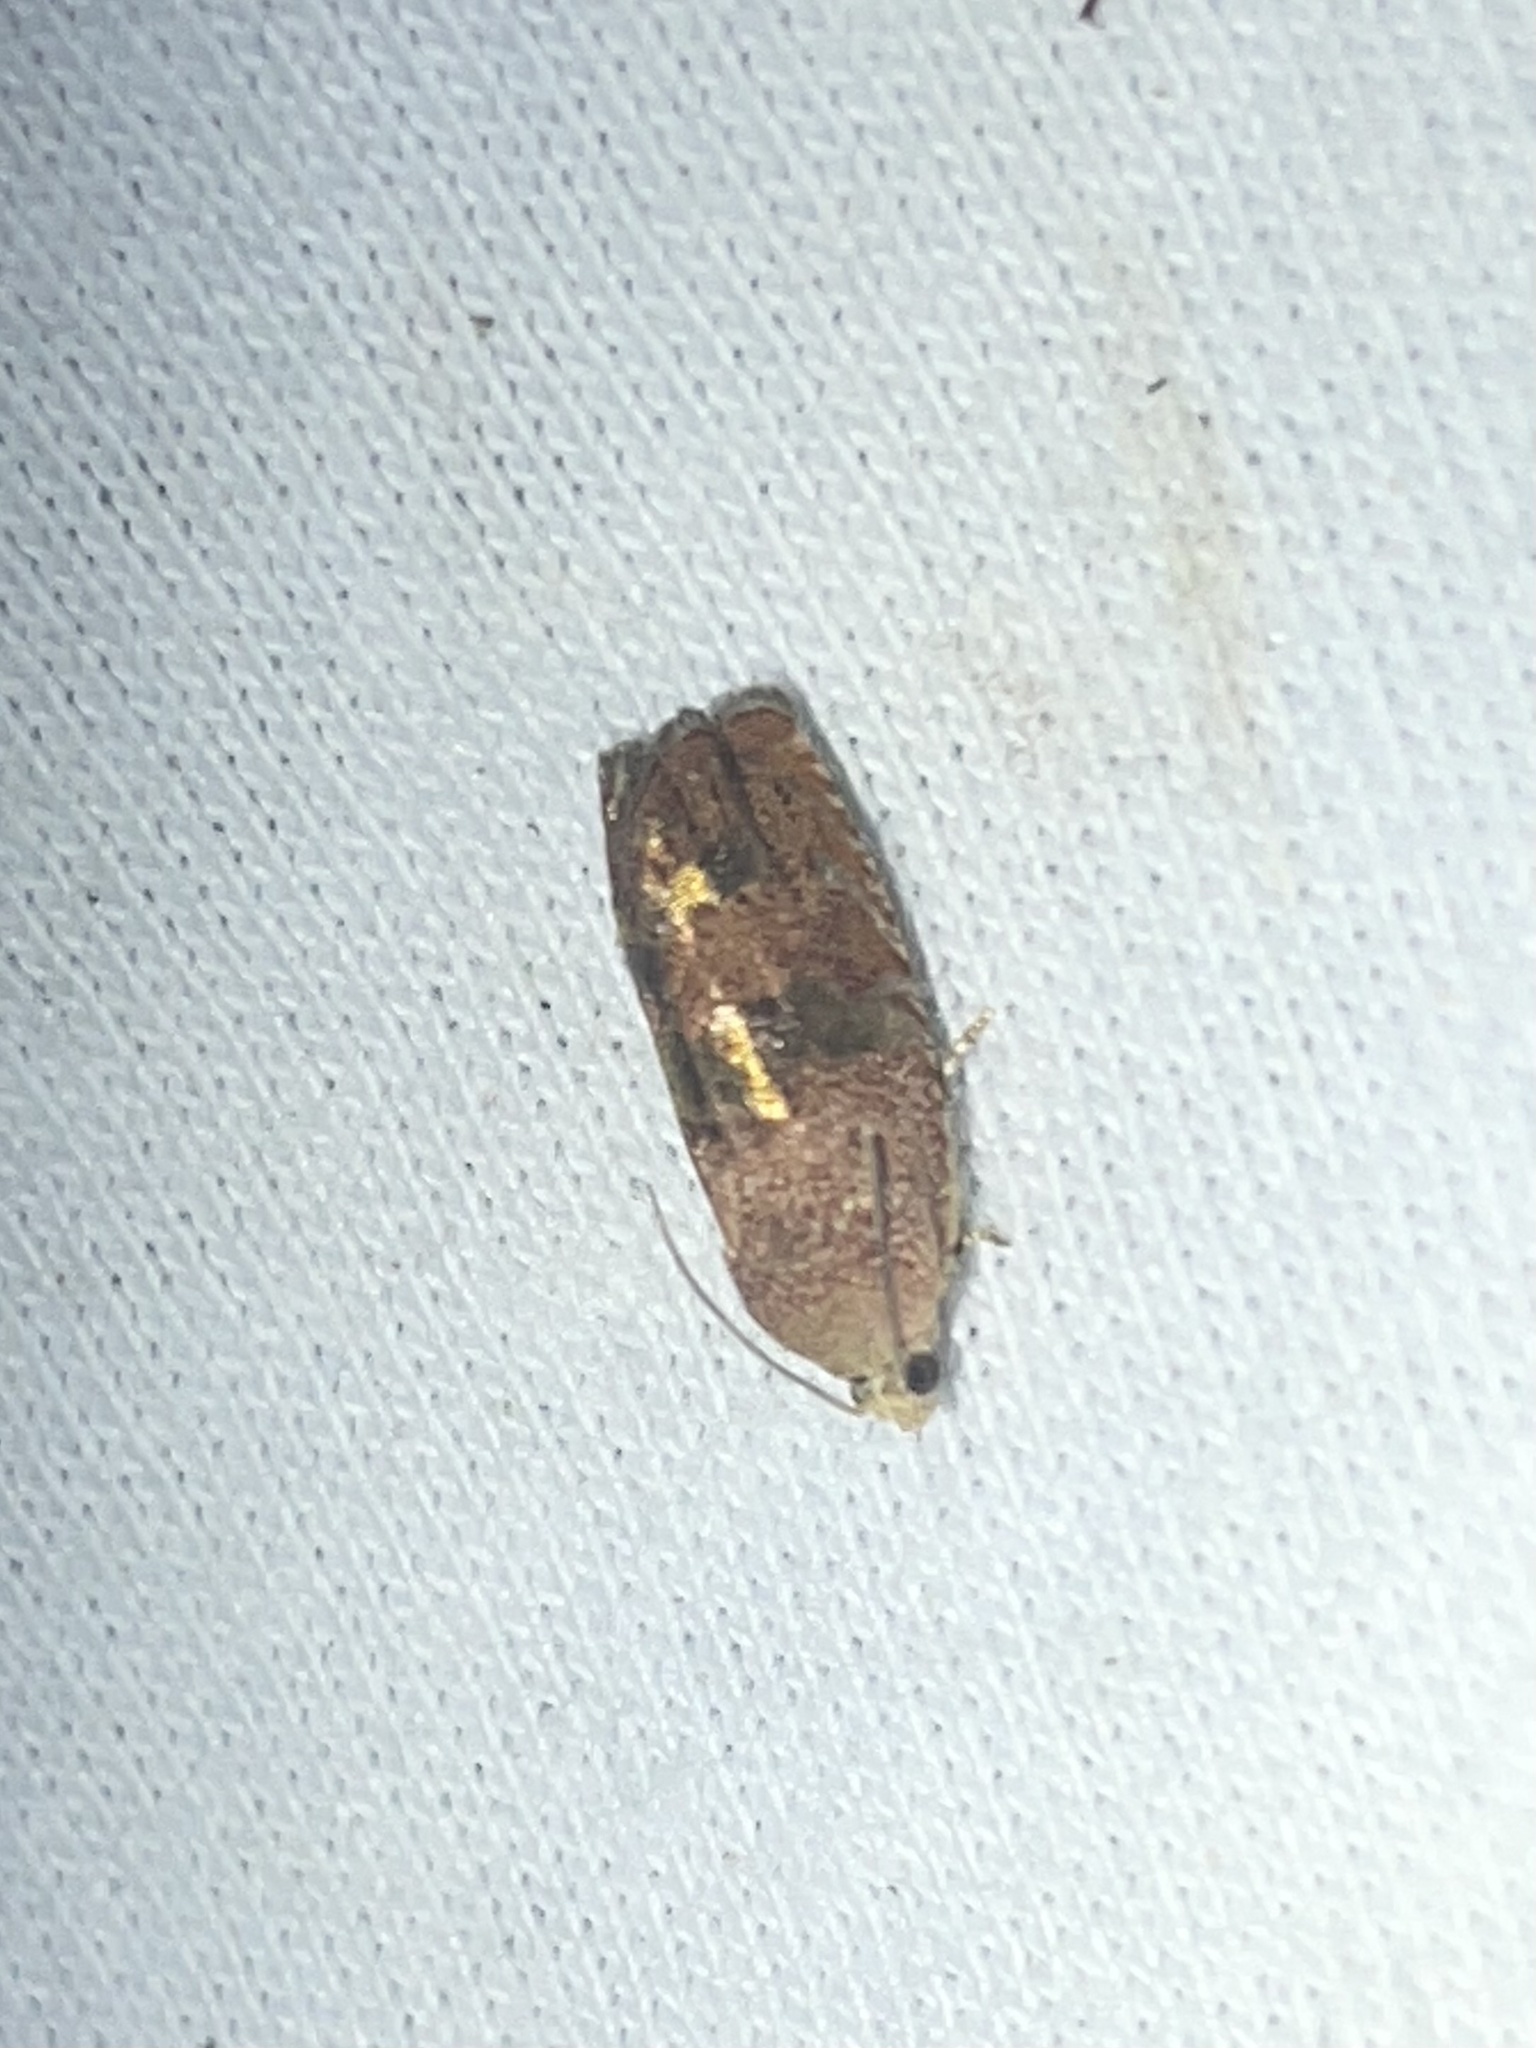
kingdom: Animalia
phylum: Arthropoda
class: Insecta
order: Lepidoptera
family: Tortricidae
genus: Cydia
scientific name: Cydia latiferreana
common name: Filbertworm moth
